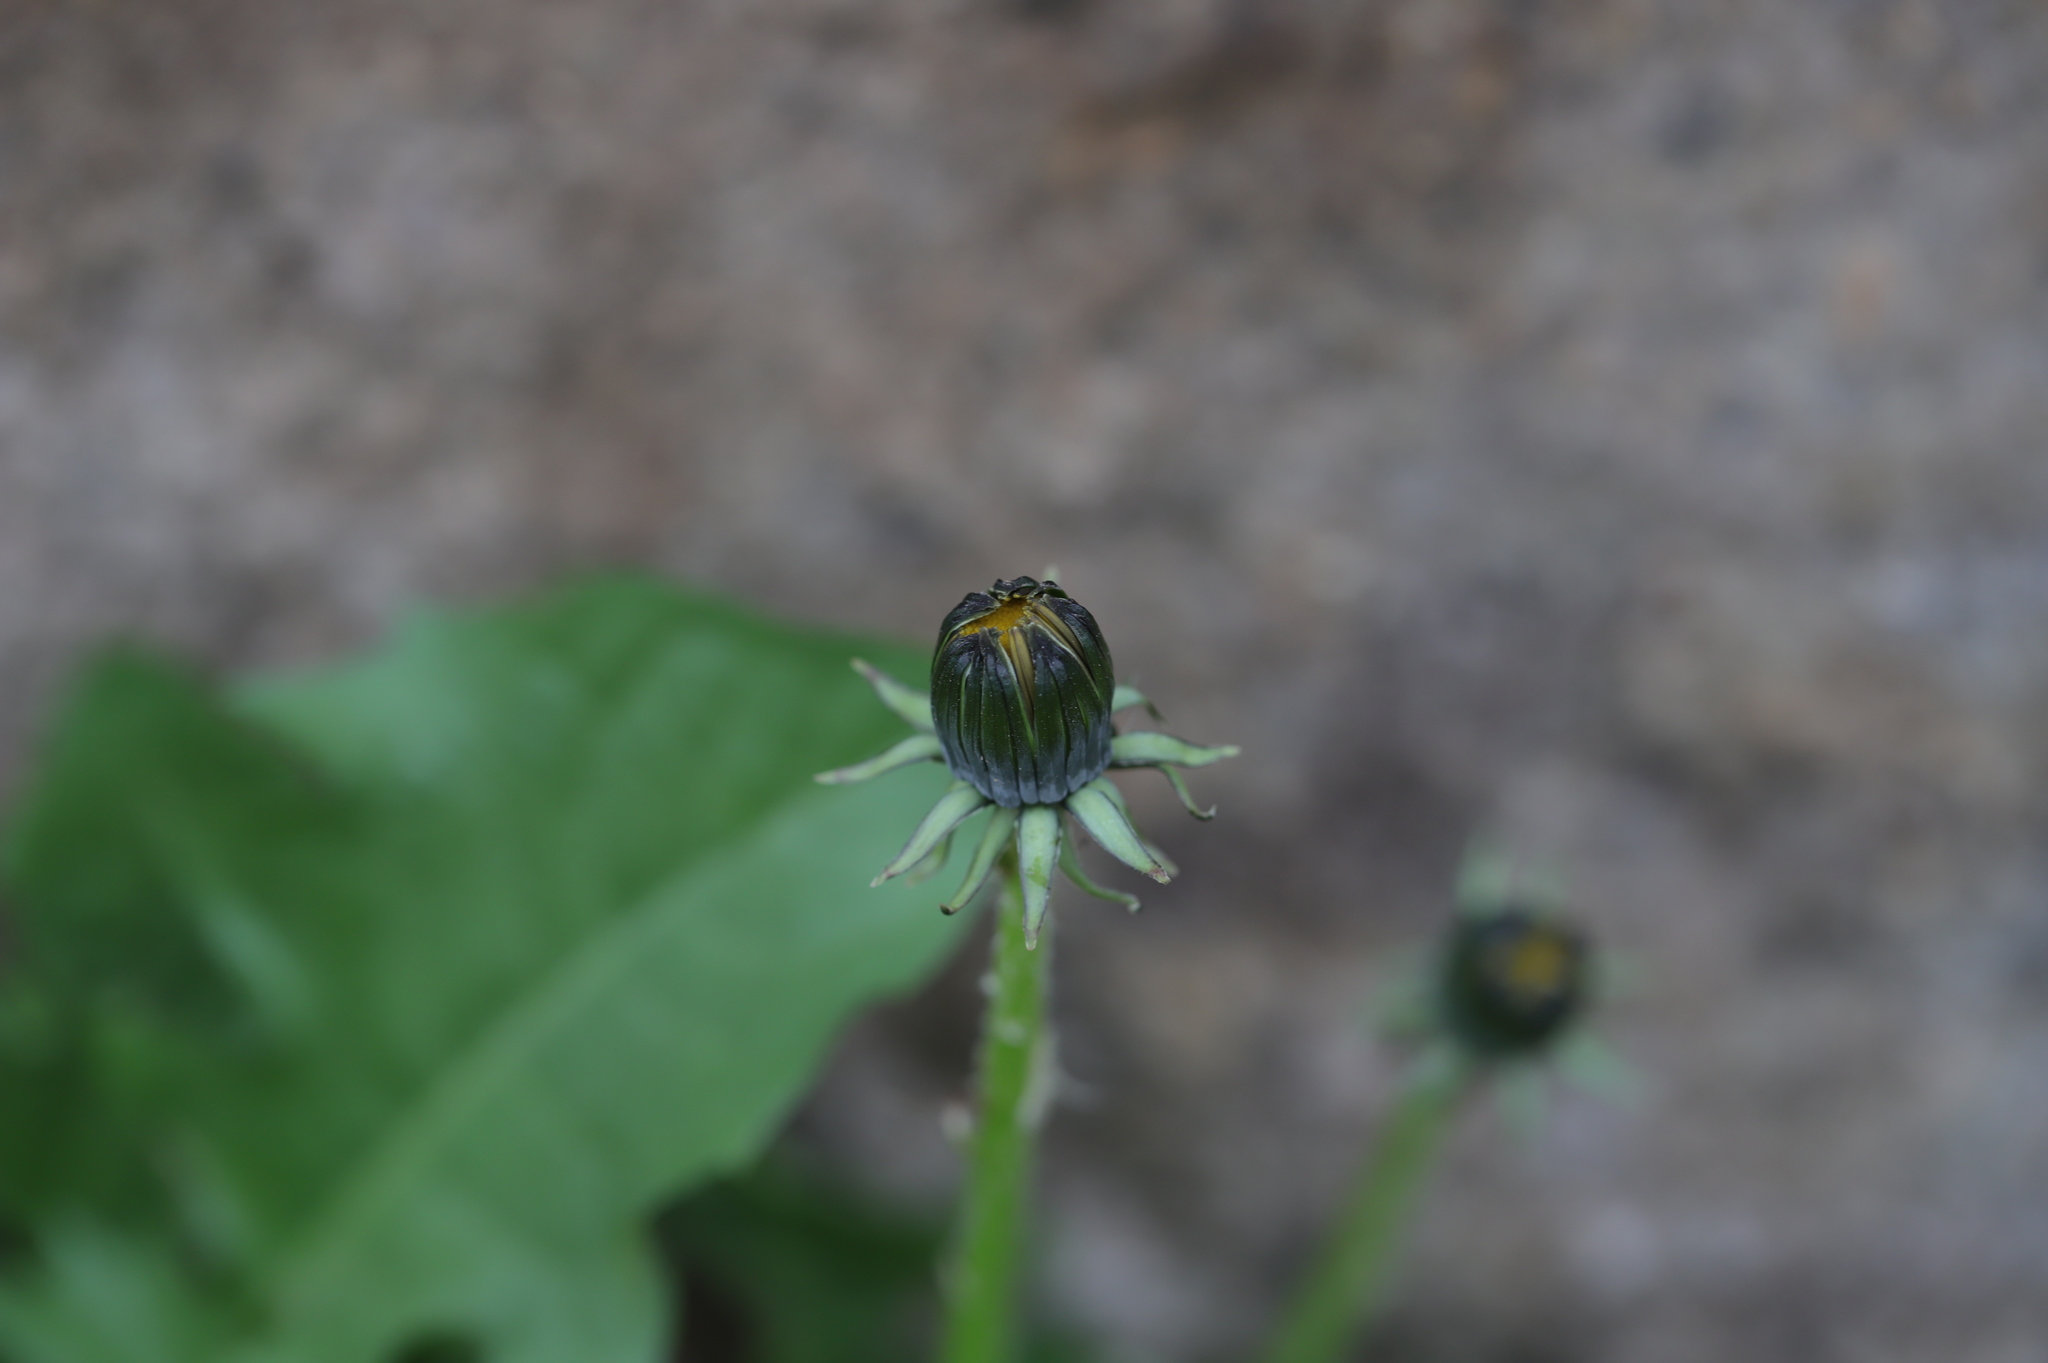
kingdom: Plantae
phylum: Tracheophyta
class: Magnoliopsida
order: Asterales
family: Asteraceae
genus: Taraxacum
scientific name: Taraxacum officinale
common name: Common dandelion
